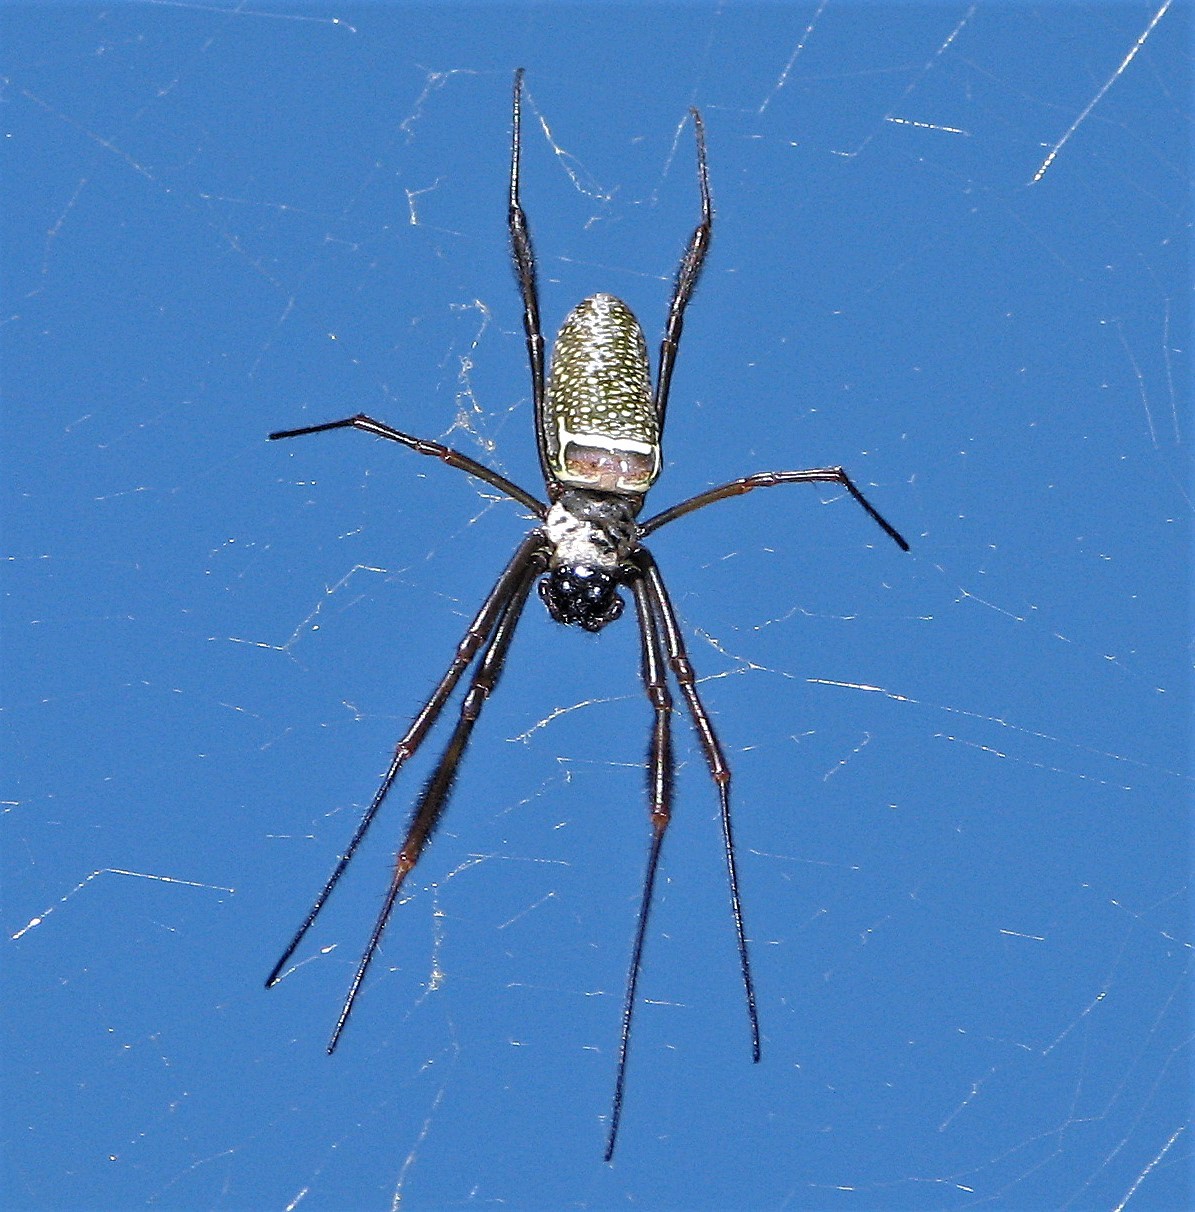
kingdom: Animalia
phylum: Arthropoda
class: Arachnida
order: Araneae
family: Araneidae
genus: Trichonephila
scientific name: Trichonephila clavipes
